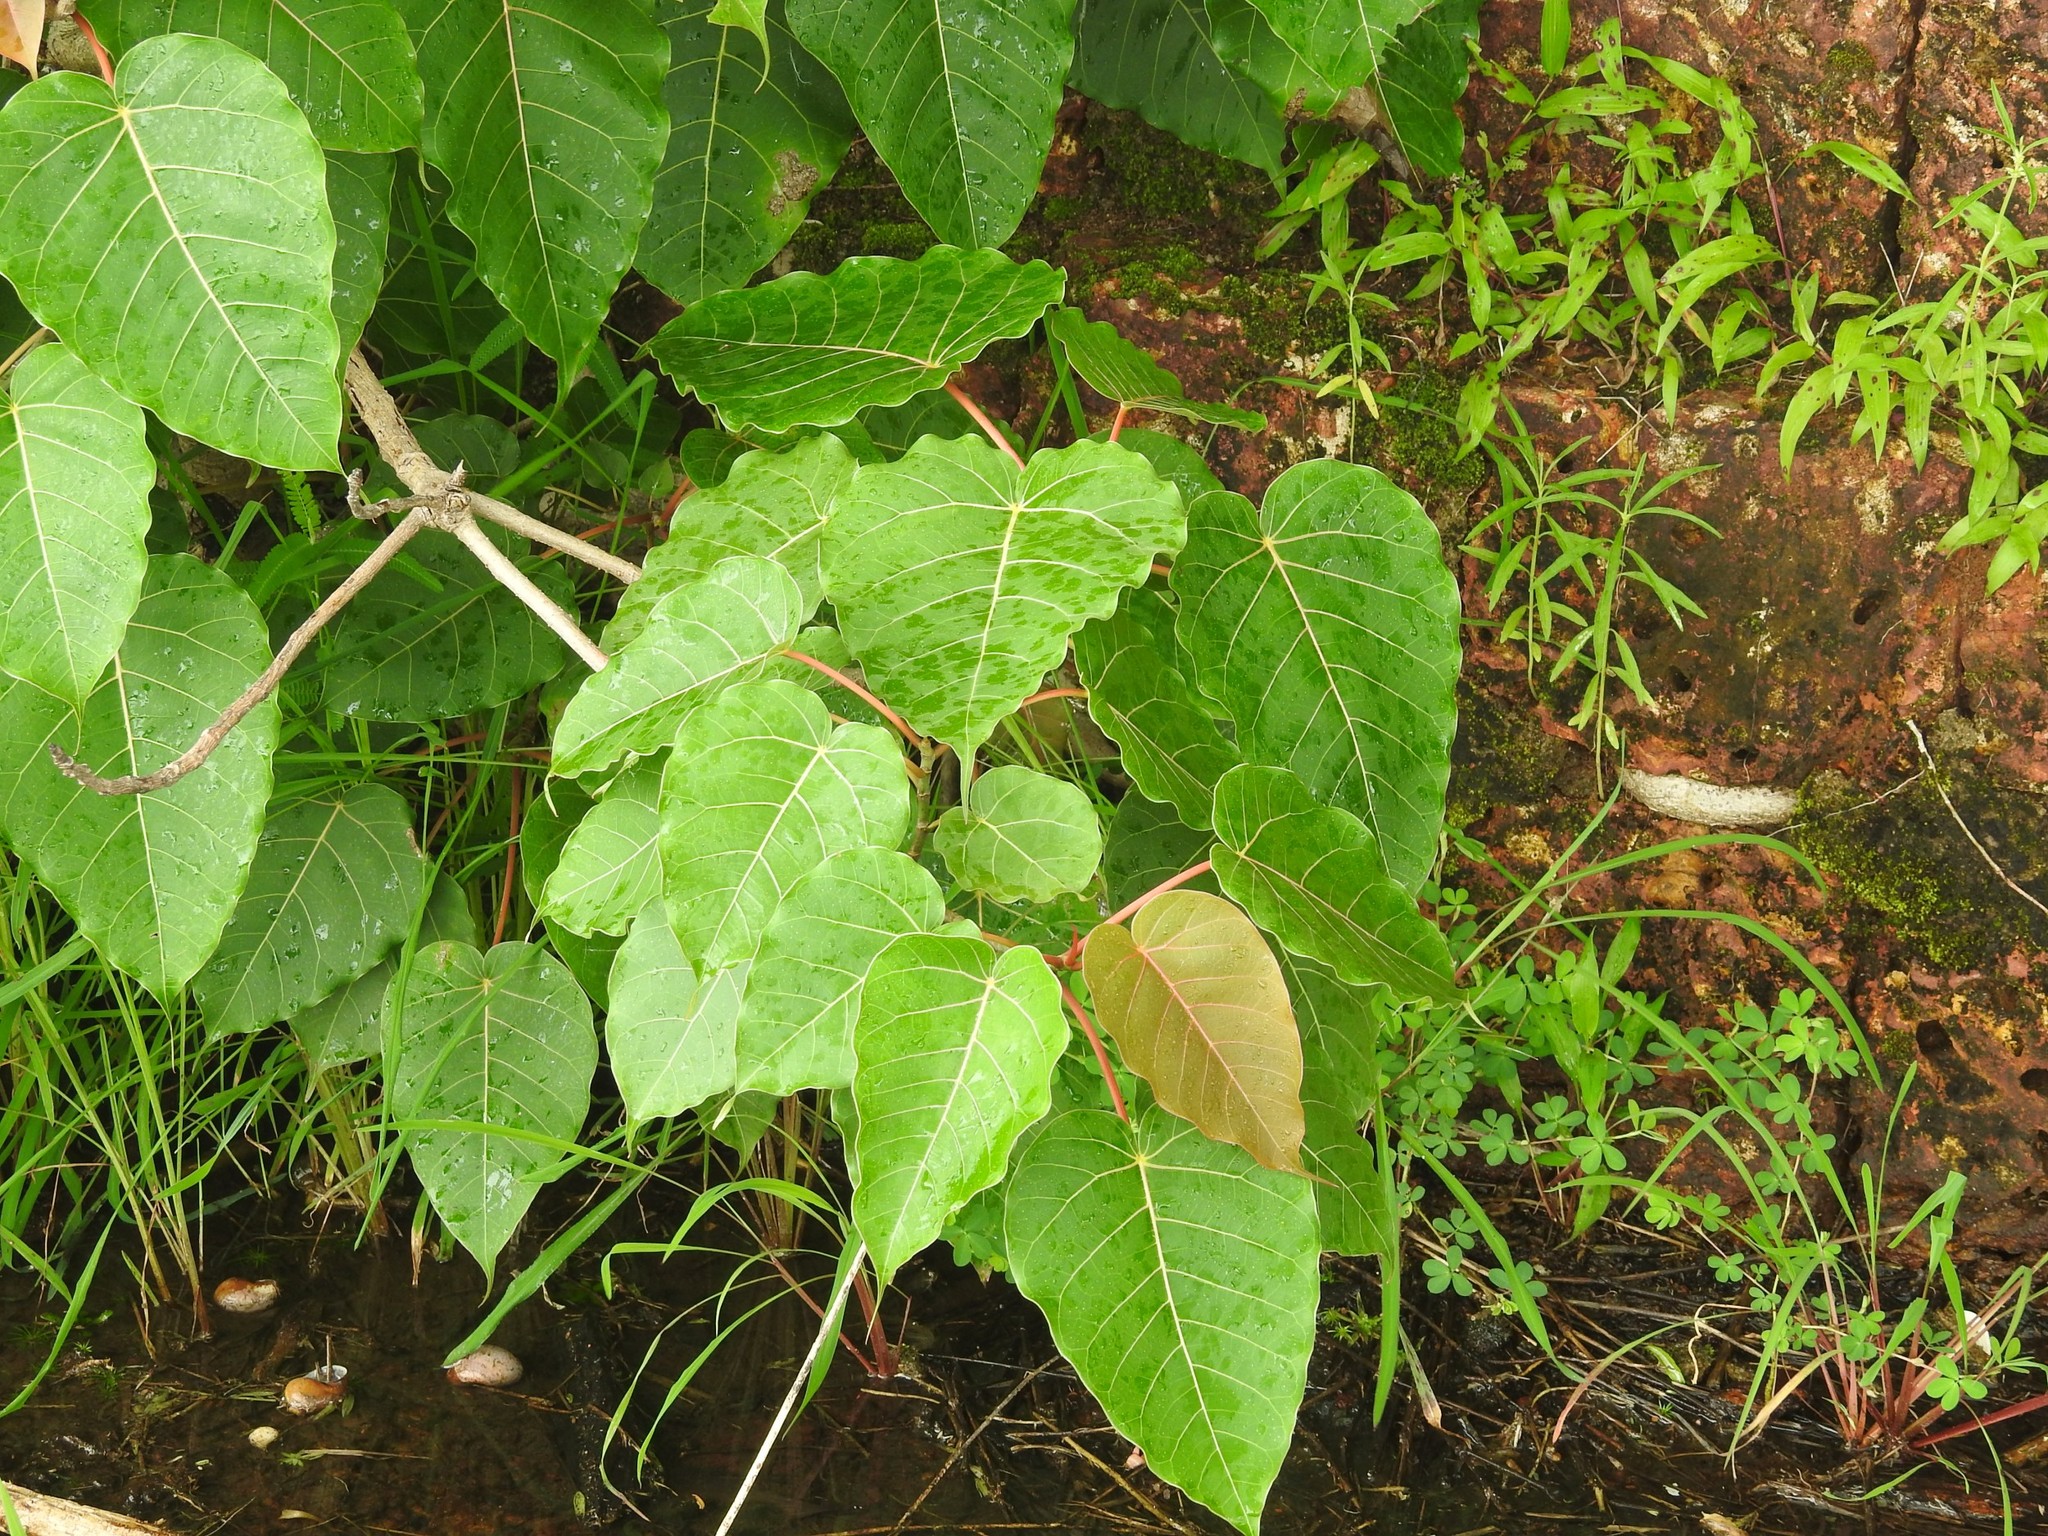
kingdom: Plantae
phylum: Tracheophyta
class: Magnoliopsida
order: Rosales
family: Moraceae
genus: Ficus
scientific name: Ficus religiosa
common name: Bodhi tree
